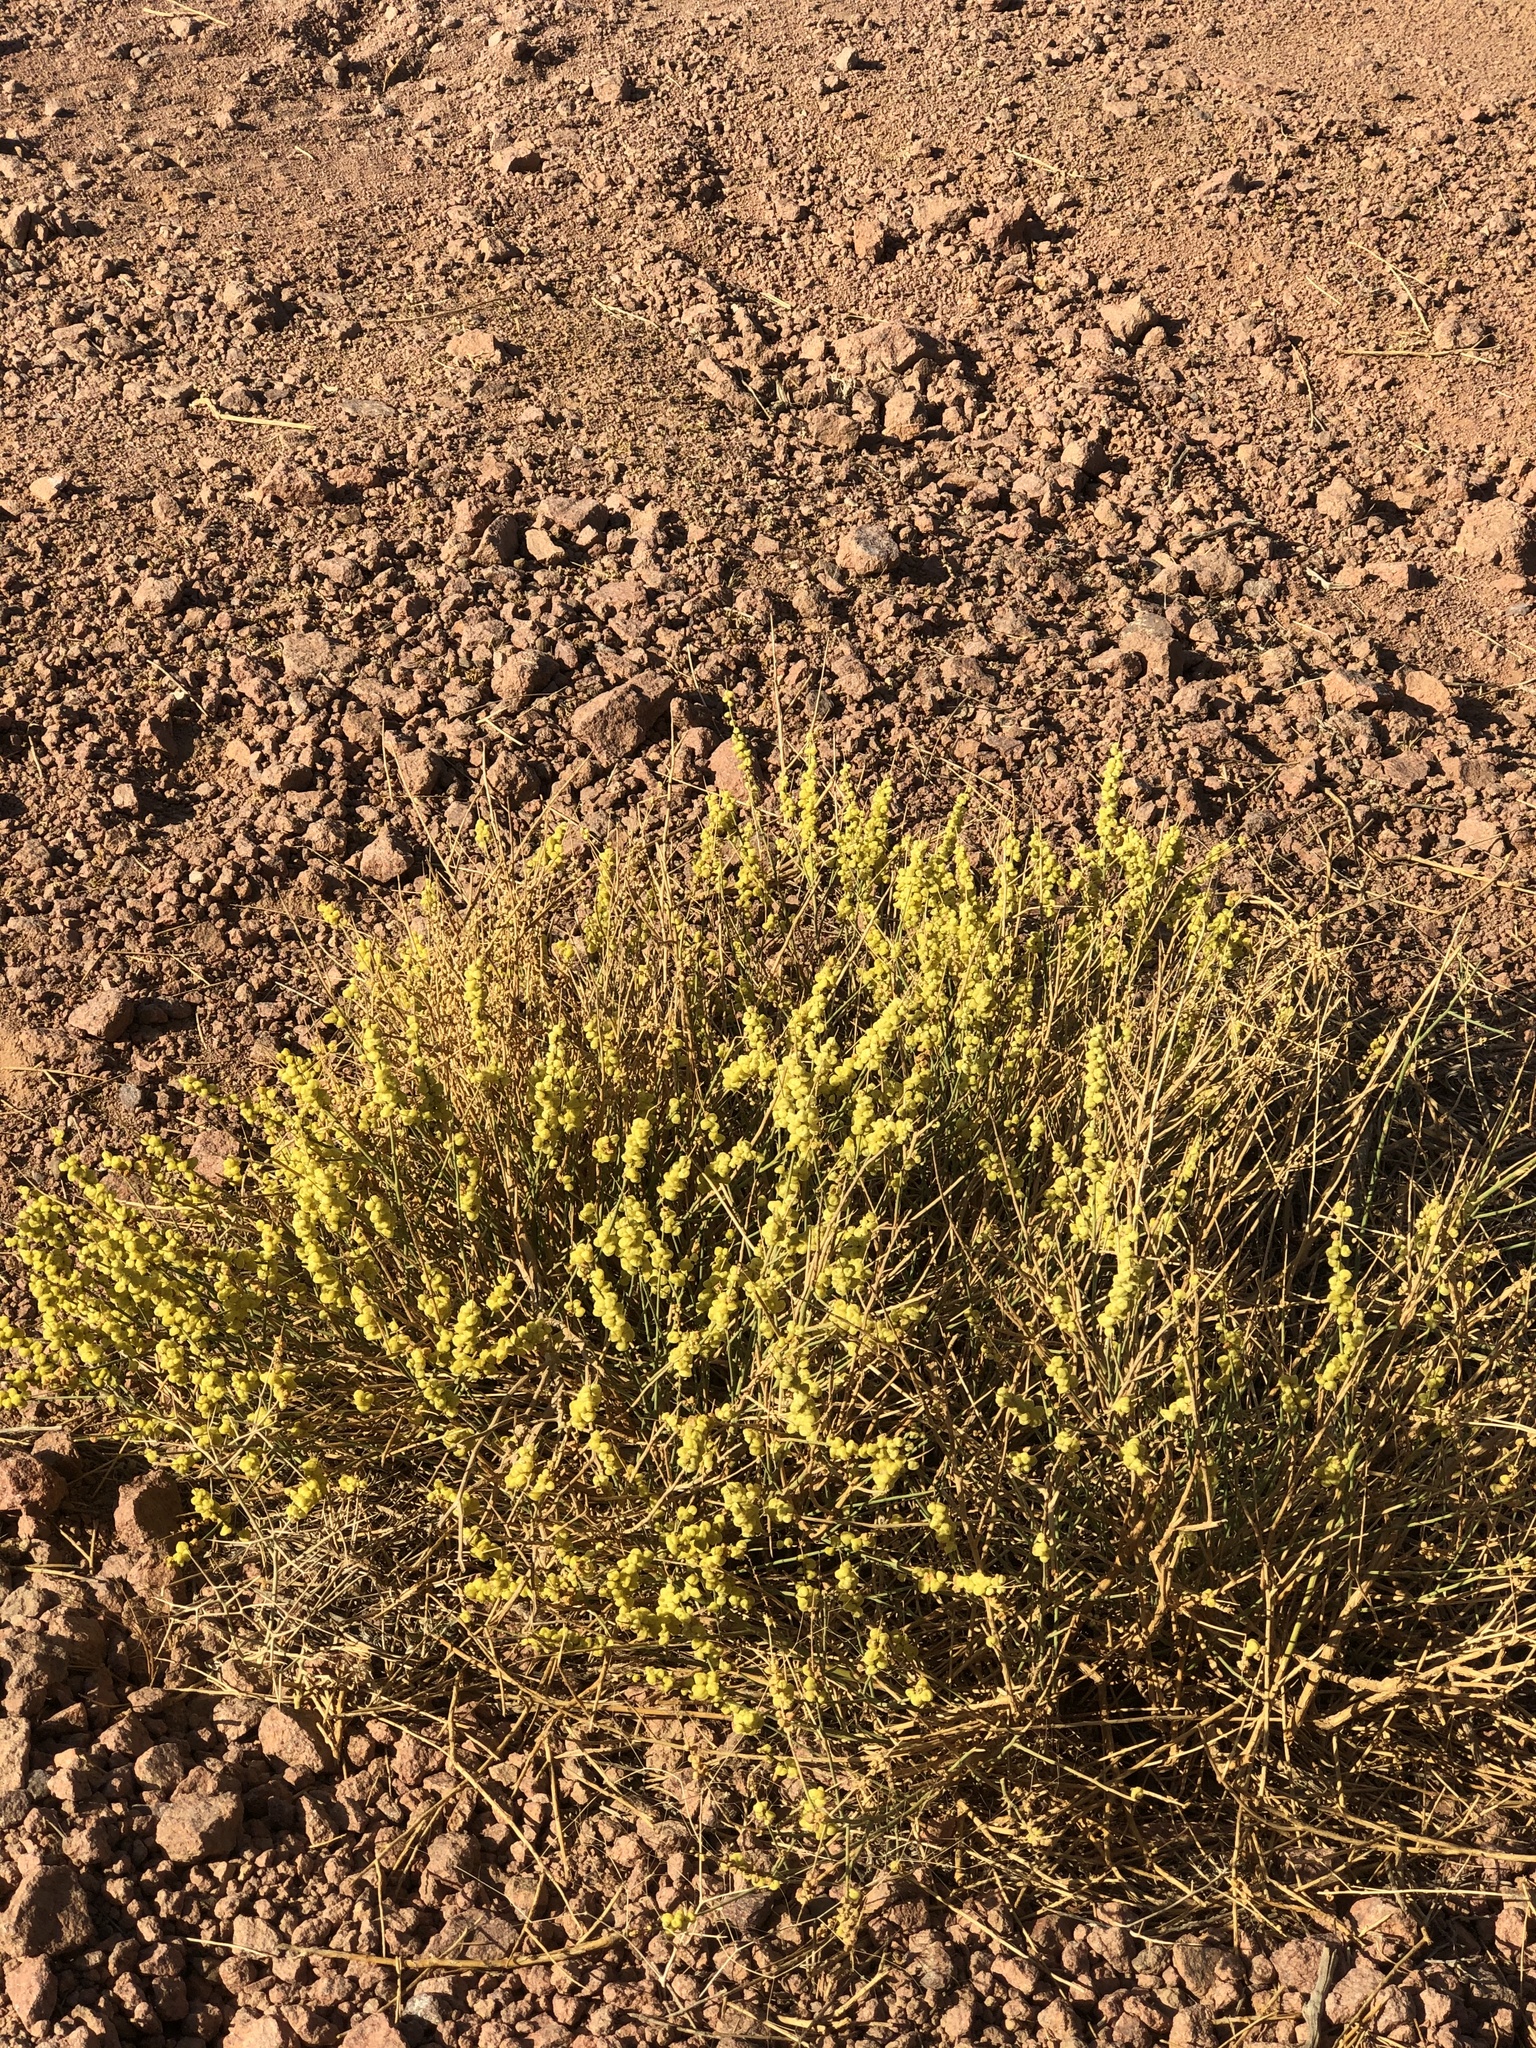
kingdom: Plantae
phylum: Tracheophyta
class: Magnoliopsida
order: Brassicales
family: Resedaceae
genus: Ochradenus
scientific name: Ochradenus arabicus
